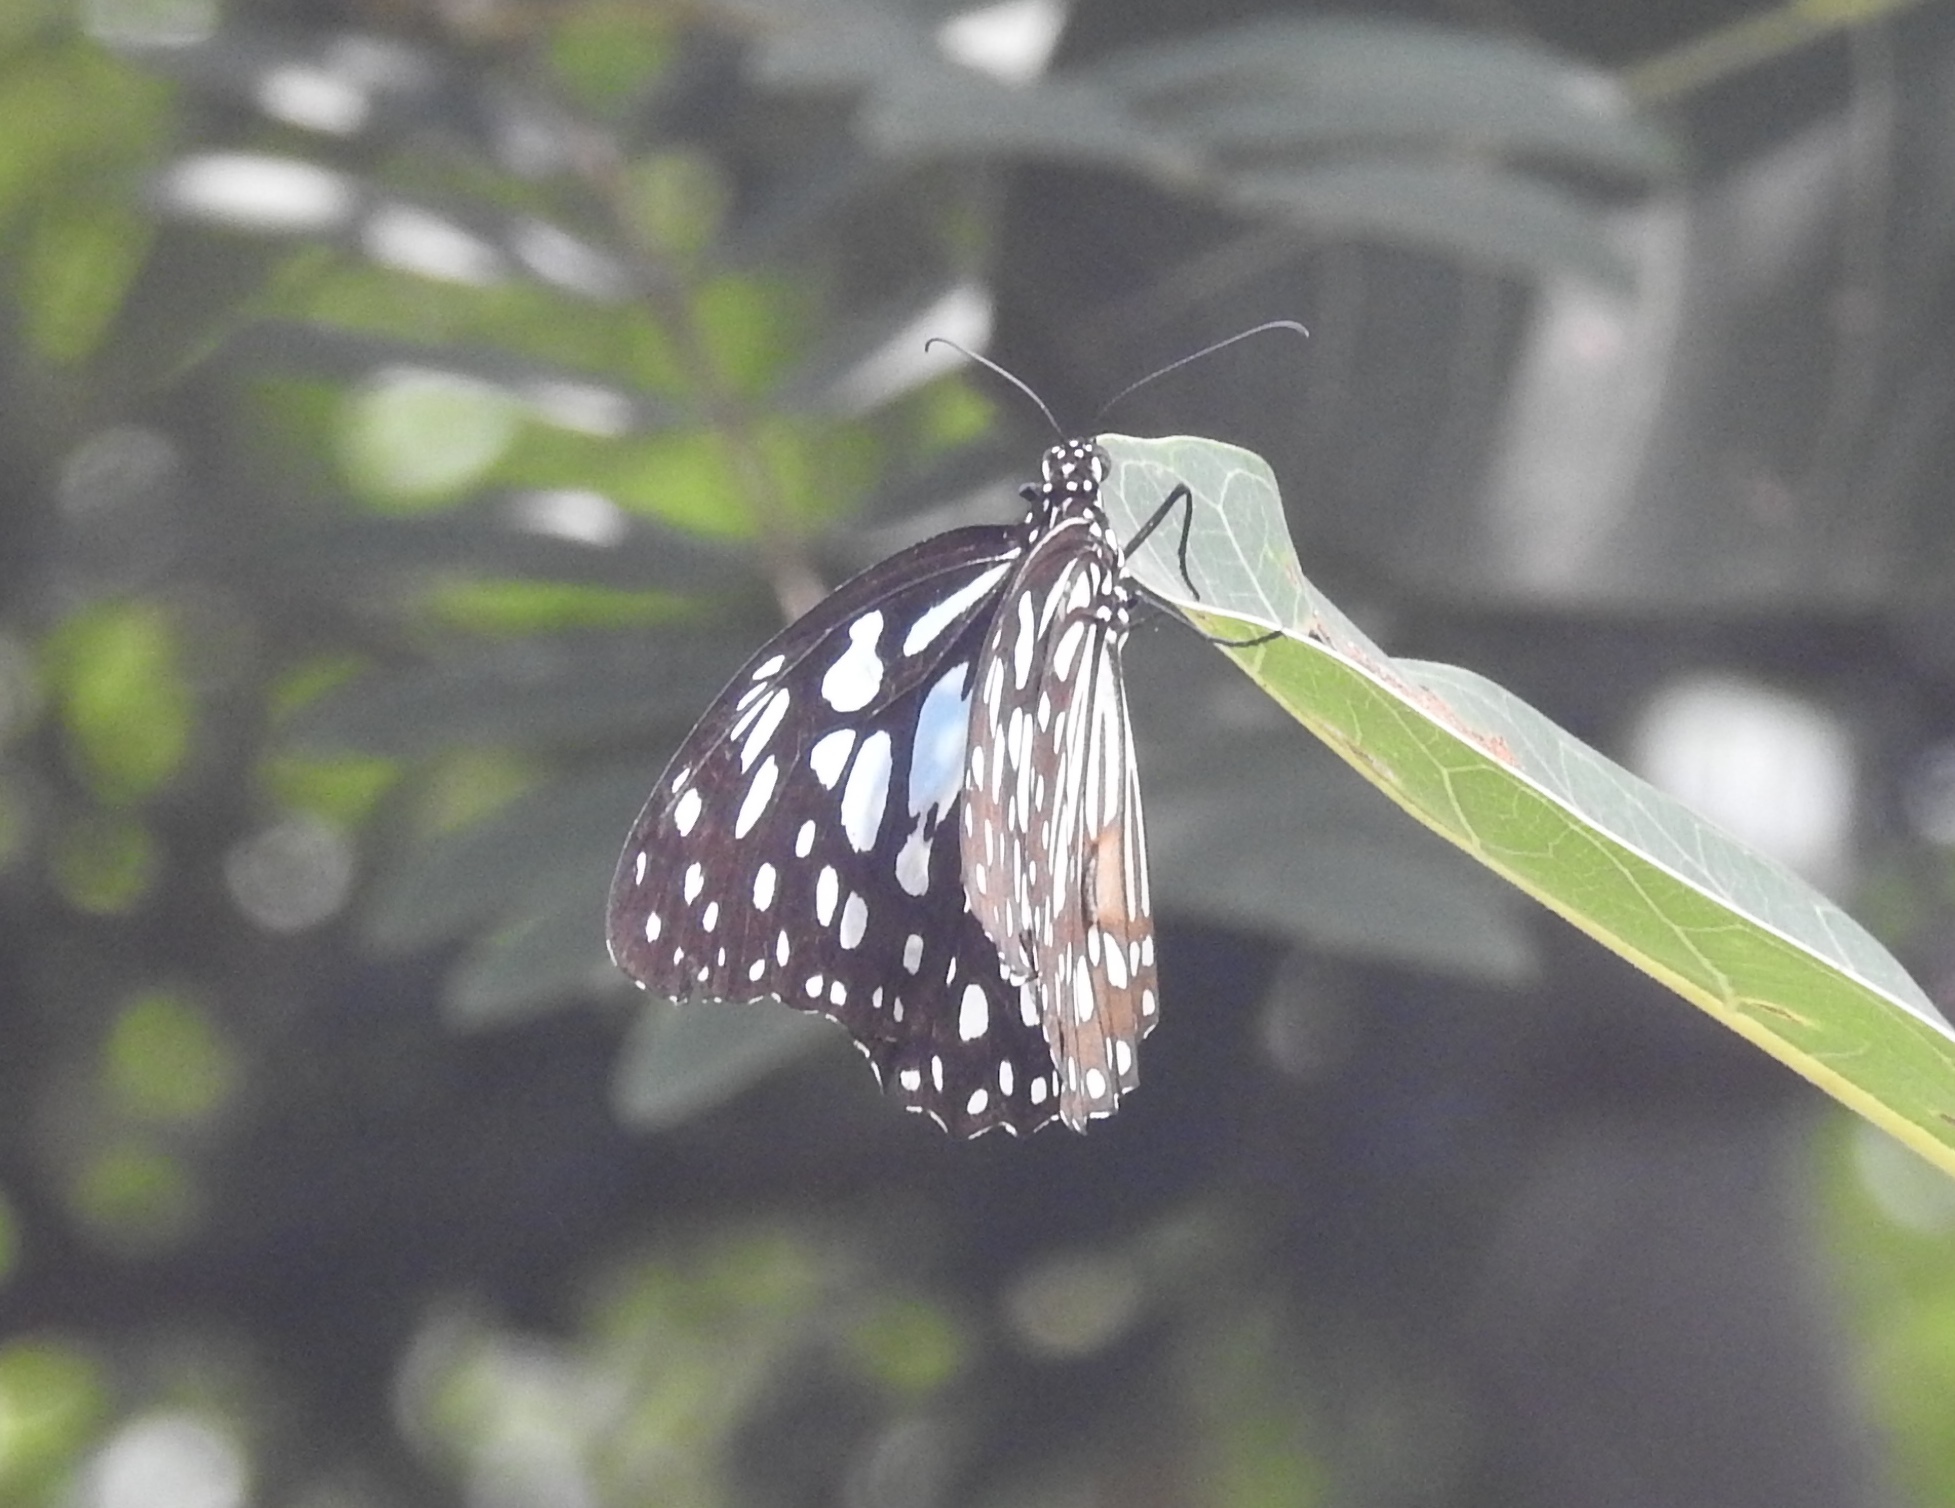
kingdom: Animalia
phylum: Arthropoda
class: Insecta
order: Lepidoptera
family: Nymphalidae
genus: Tirumala
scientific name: Tirumala limniace
